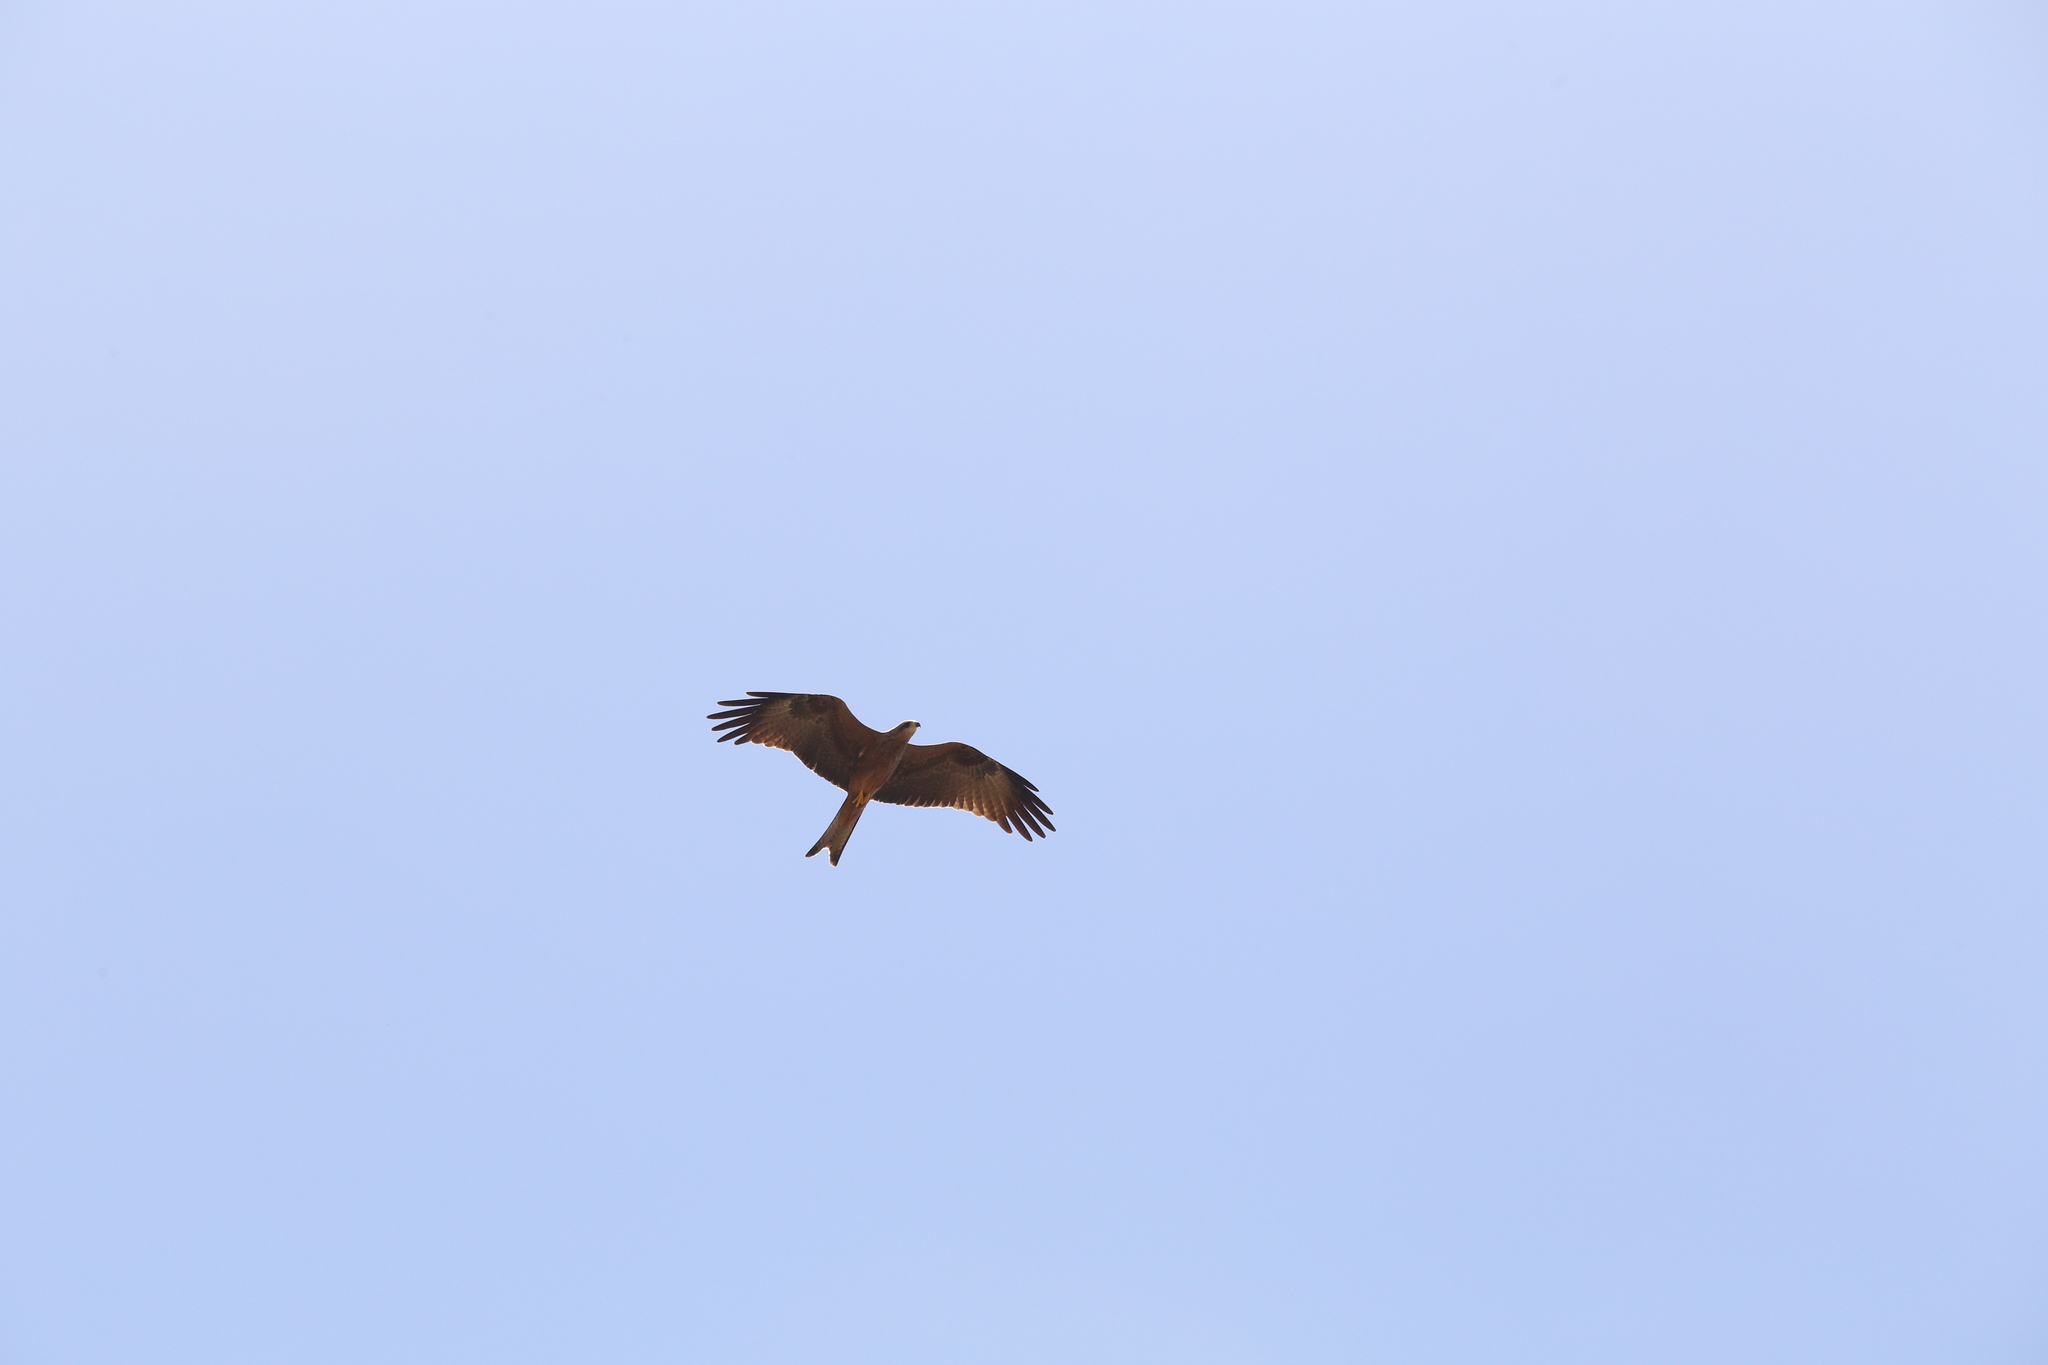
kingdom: Animalia
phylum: Chordata
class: Aves
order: Accipitriformes
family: Accipitridae
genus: Milvus
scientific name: Milvus migrans
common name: Black kite
